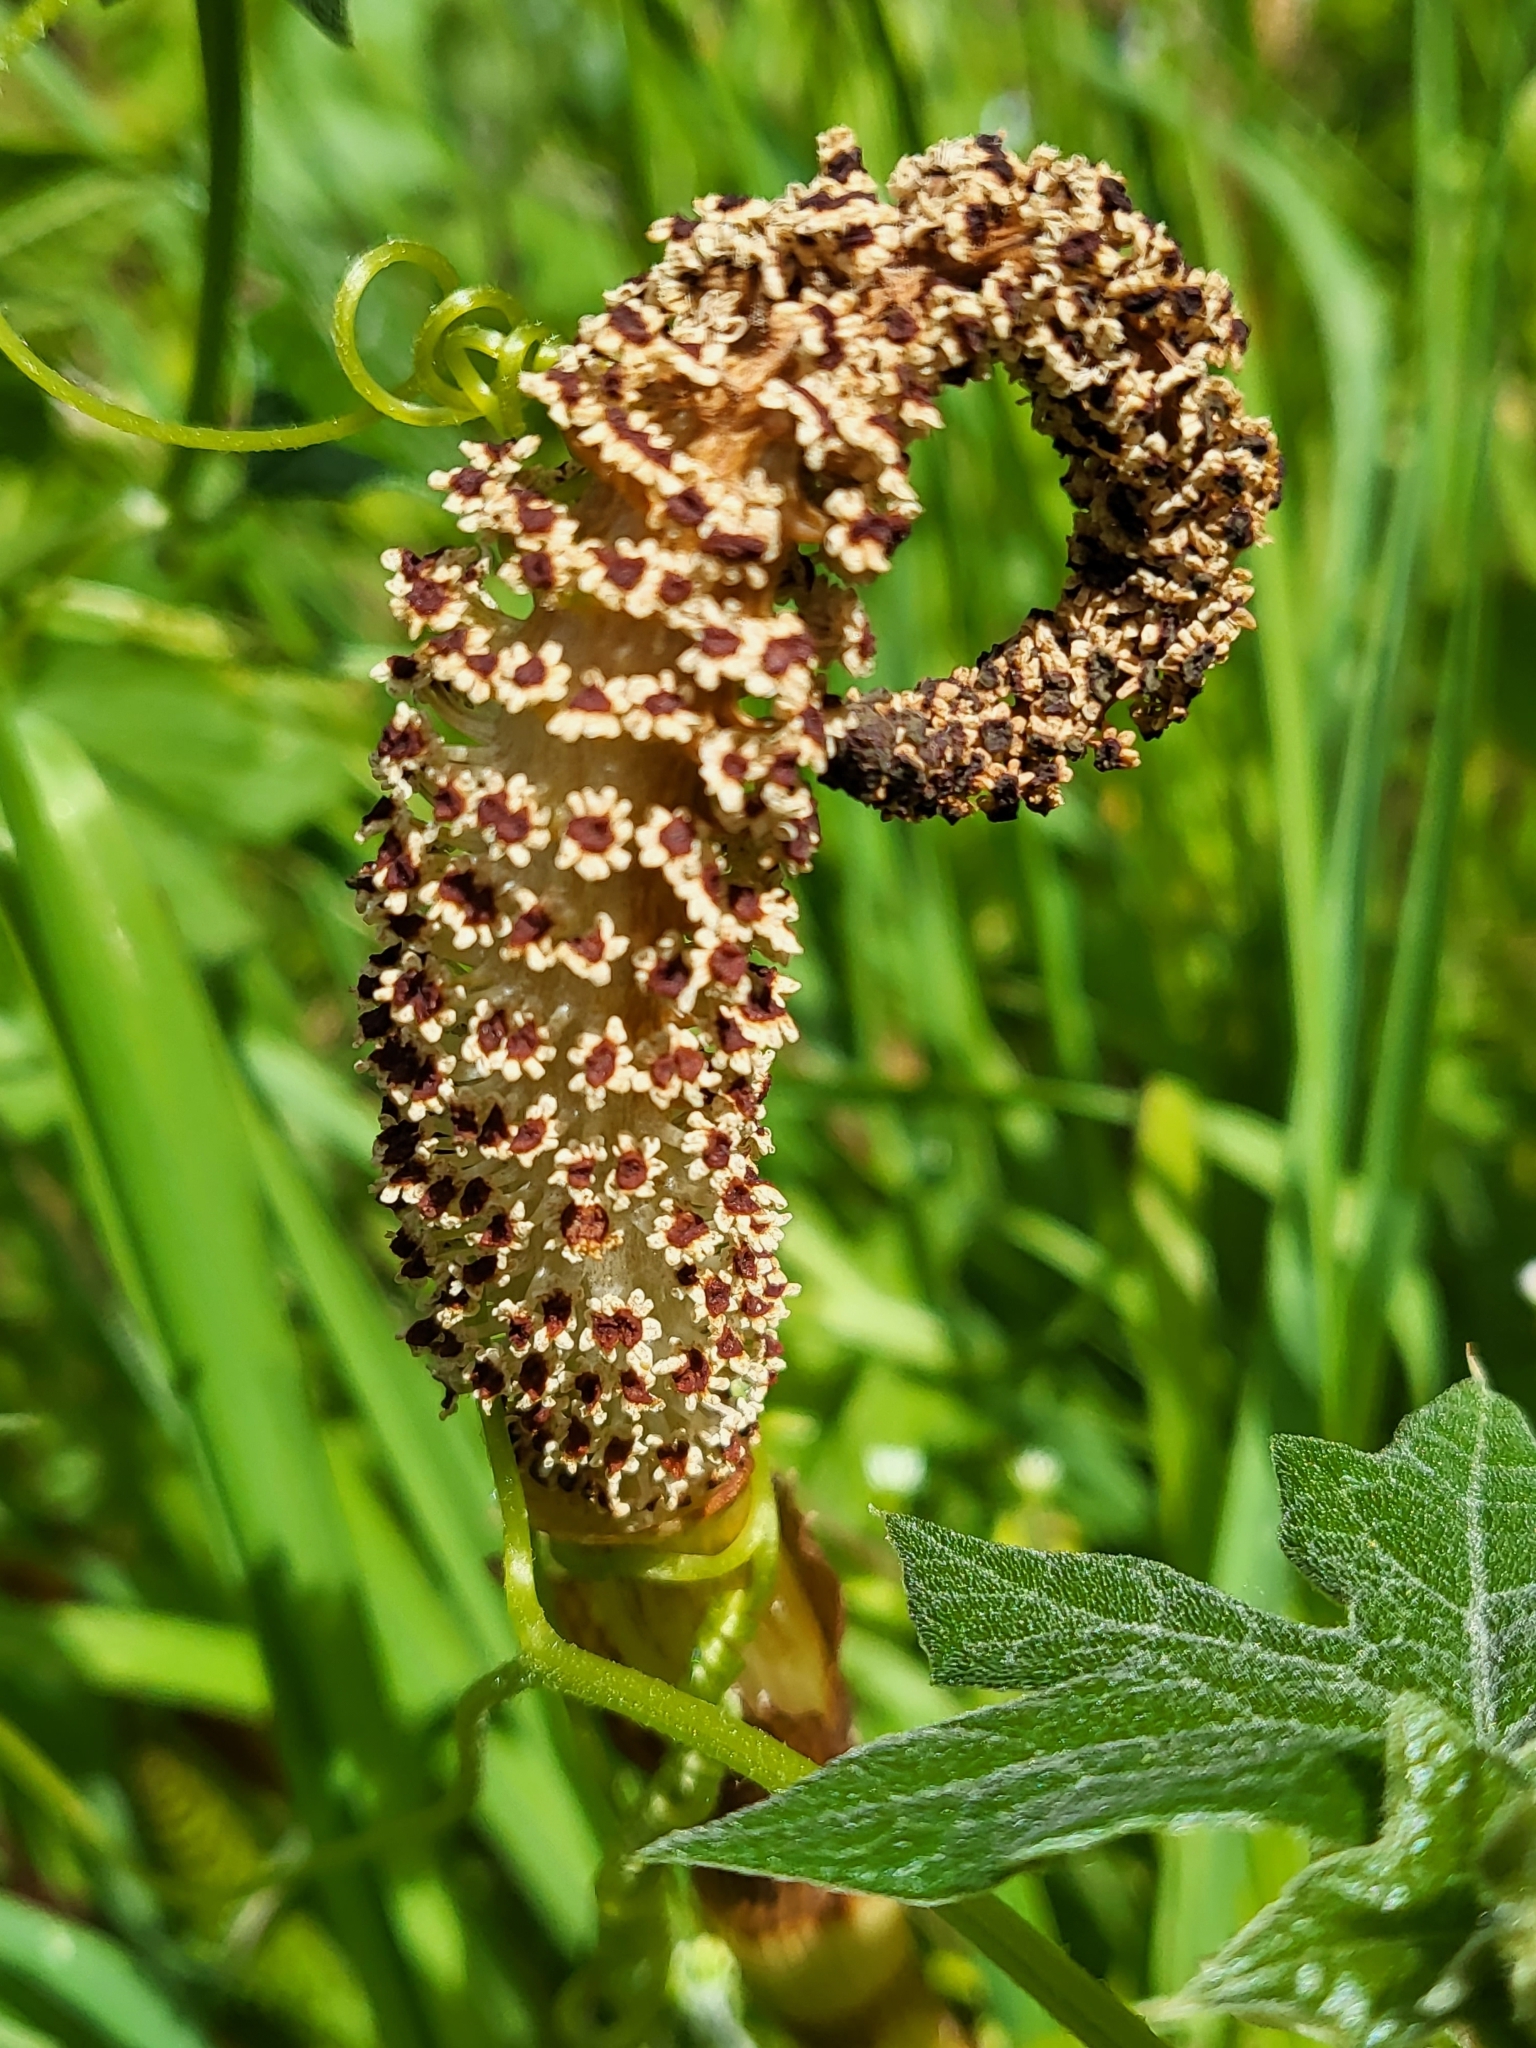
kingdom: Plantae
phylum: Tracheophyta
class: Polypodiopsida
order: Equisetales
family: Equisetaceae
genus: Equisetum
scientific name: Equisetum telmateia
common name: Great horsetail
